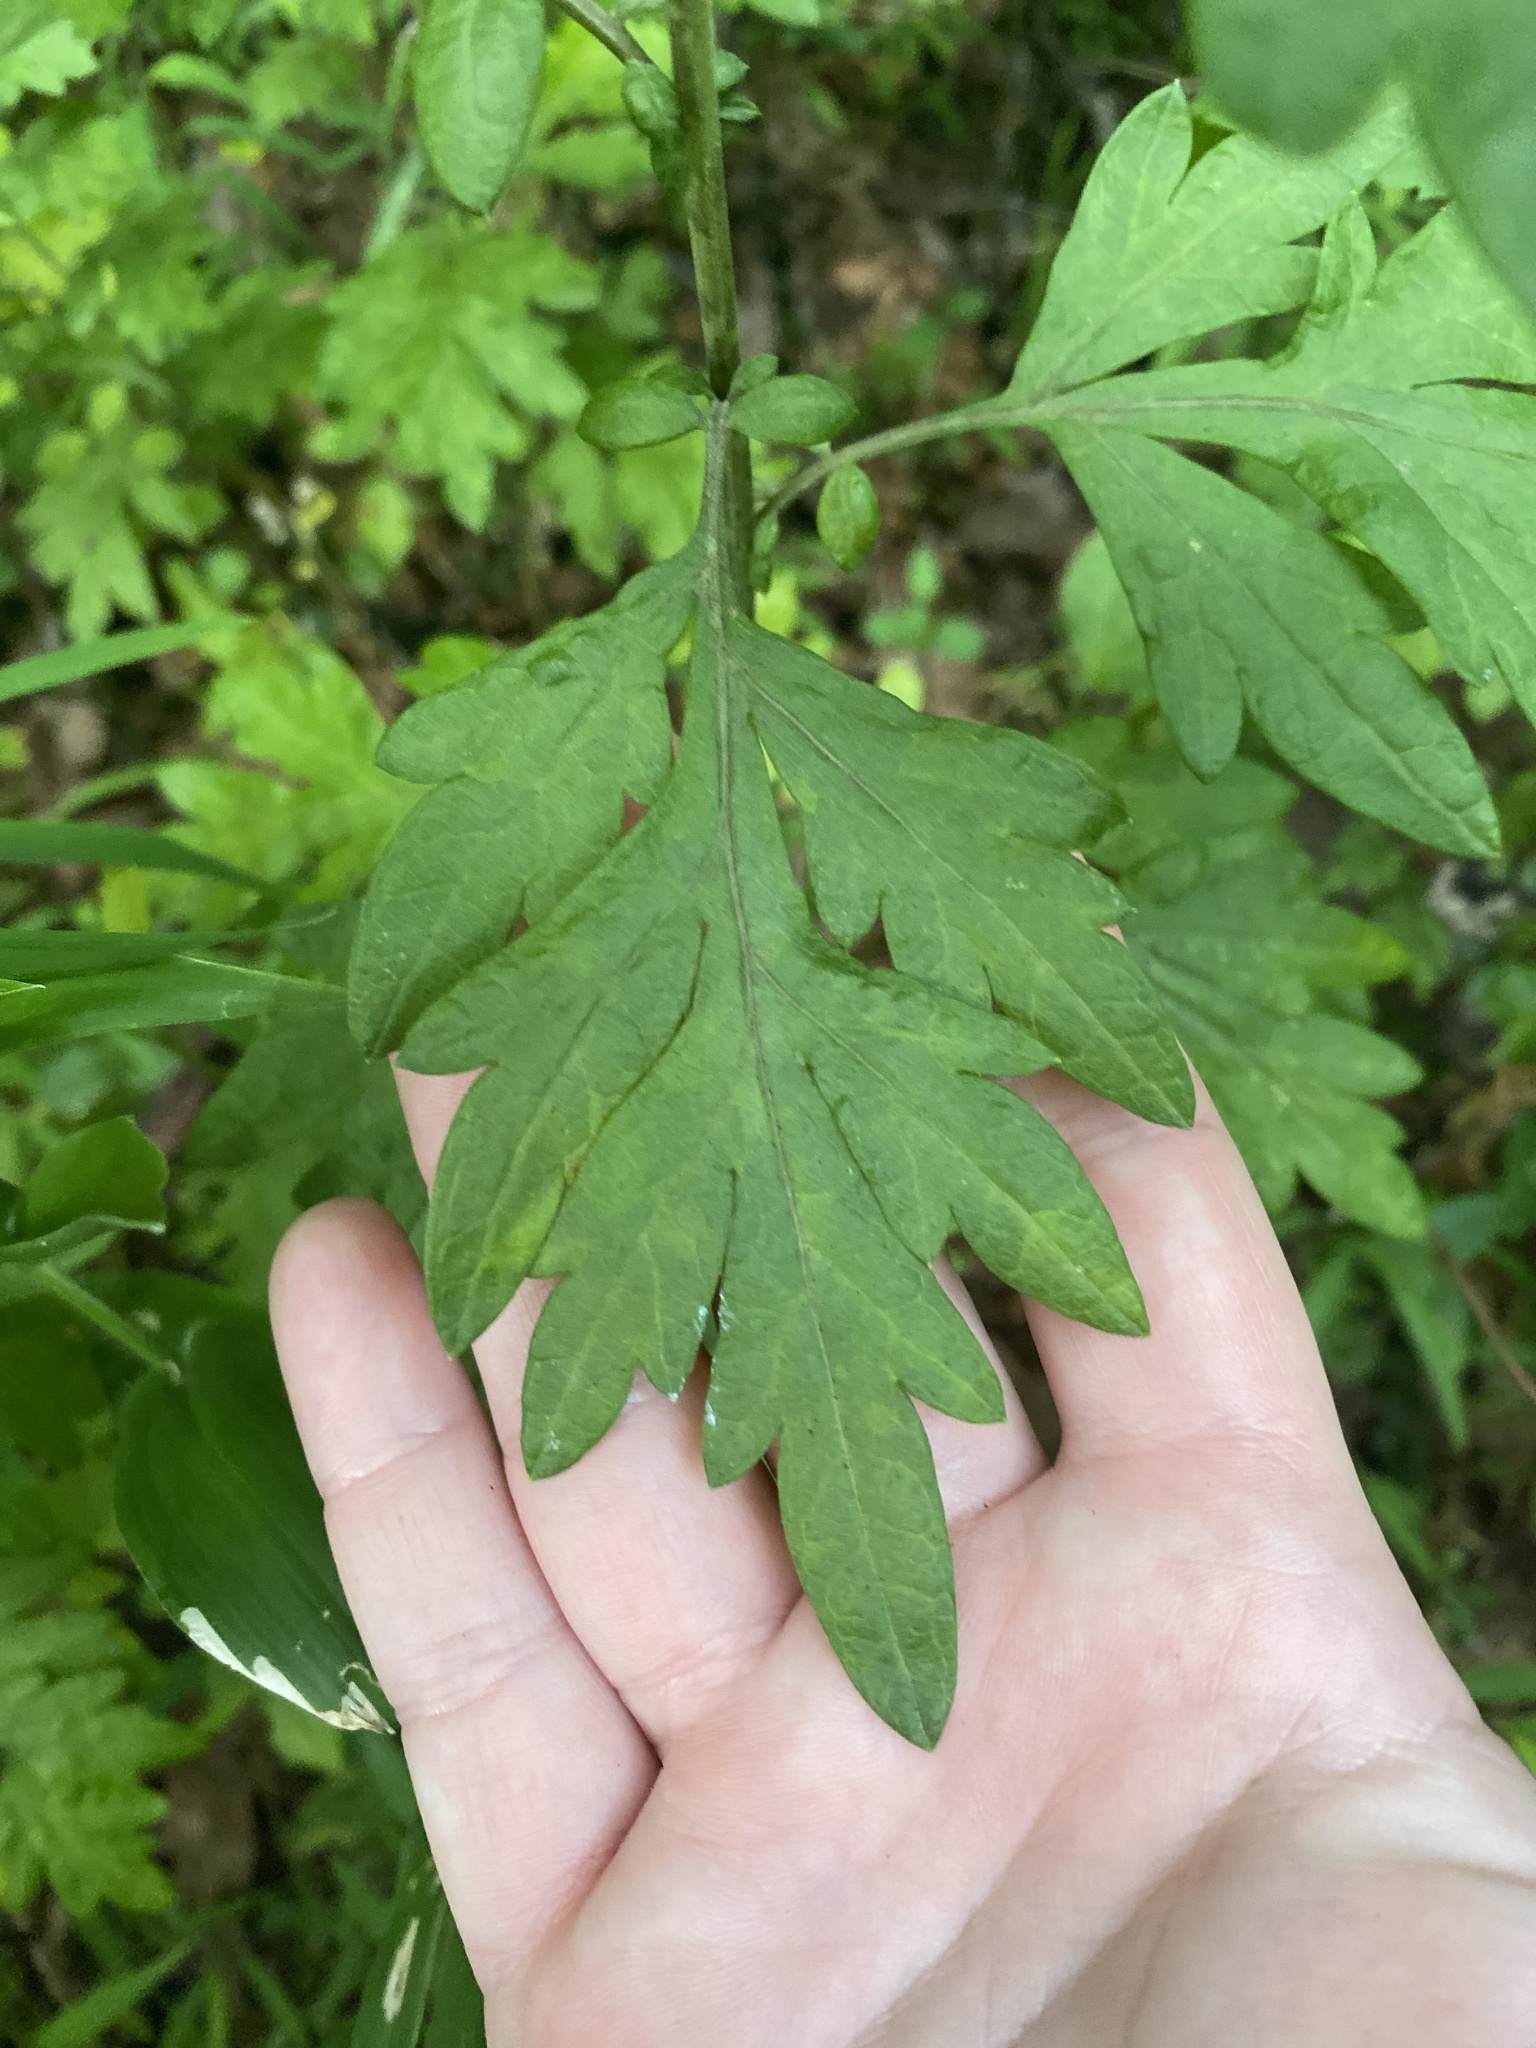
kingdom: Plantae
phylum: Tracheophyta
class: Magnoliopsida
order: Asterales
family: Asteraceae
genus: Artemisia
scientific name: Artemisia vulgaris
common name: Mugwort
